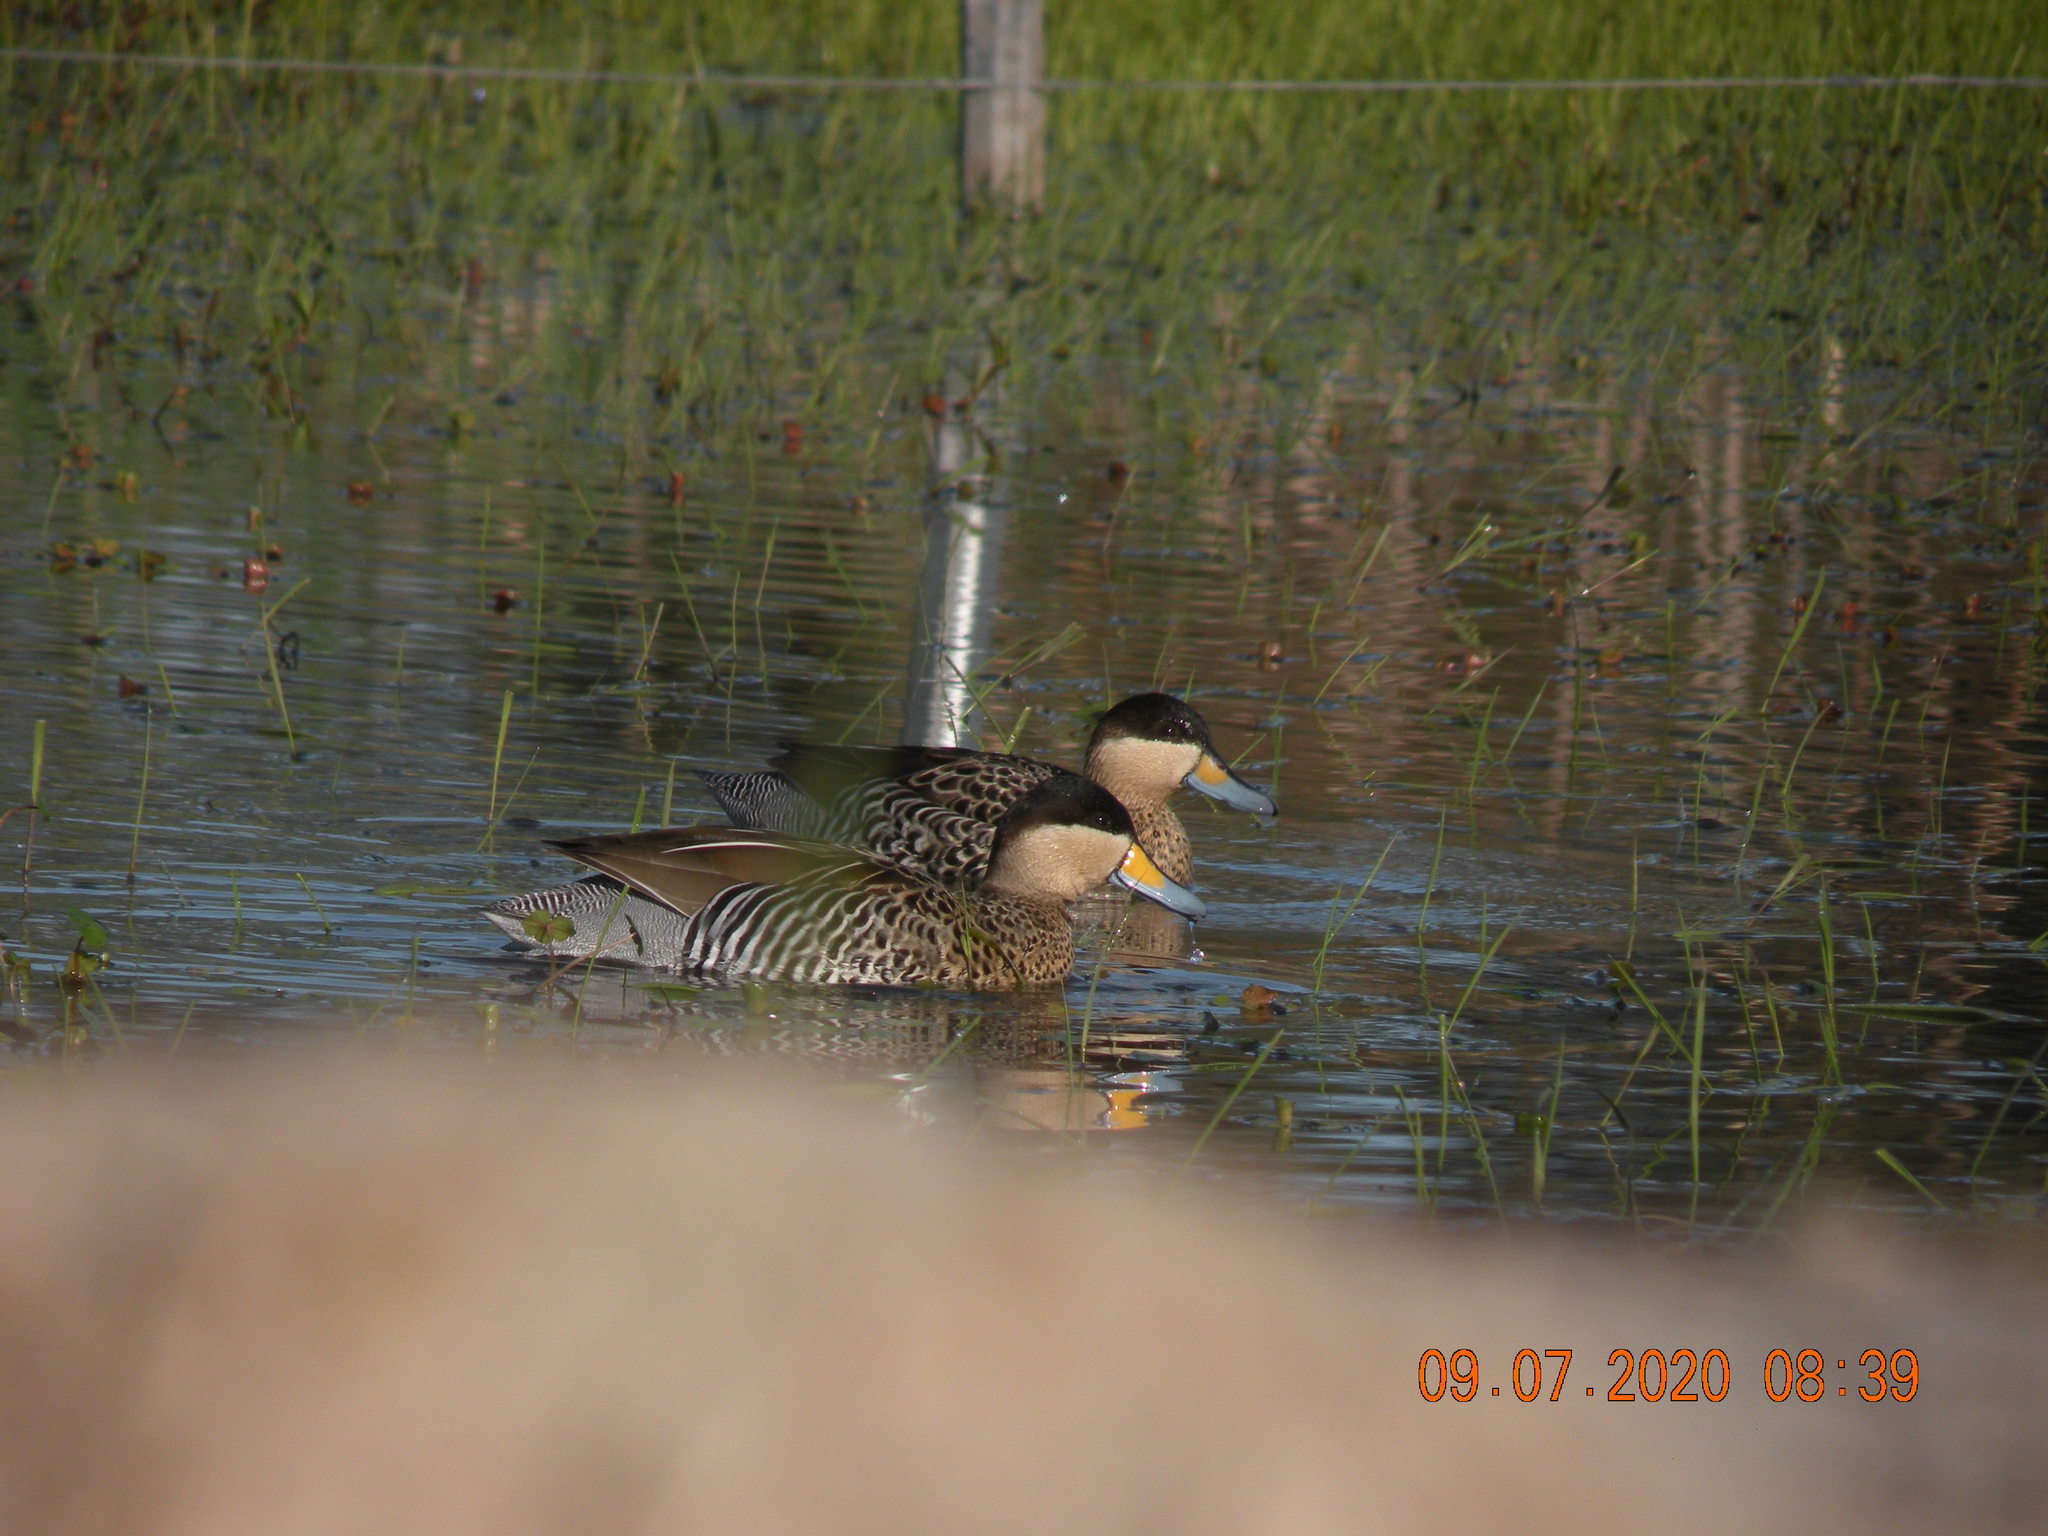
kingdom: Animalia
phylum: Chordata
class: Aves
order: Anseriformes
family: Anatidae
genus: Spatula
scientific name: Spatula versicolor
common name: Silver teal
